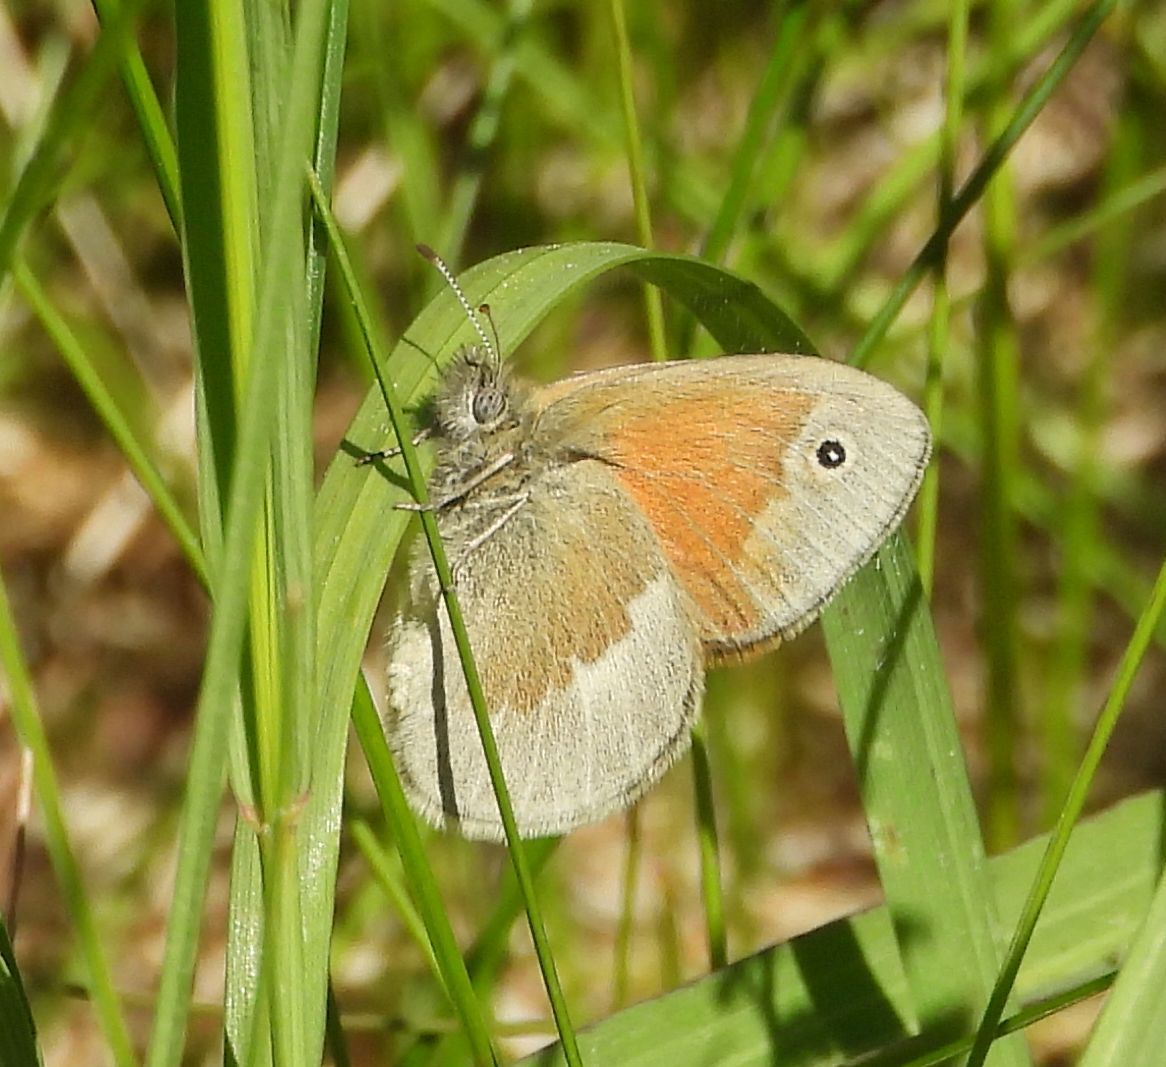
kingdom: Animalia
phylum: Arthropoda
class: Insecta
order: Lepidoptera
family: Nymphalidae
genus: Coenonympha
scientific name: Coenonympha california
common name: Common ringlet
